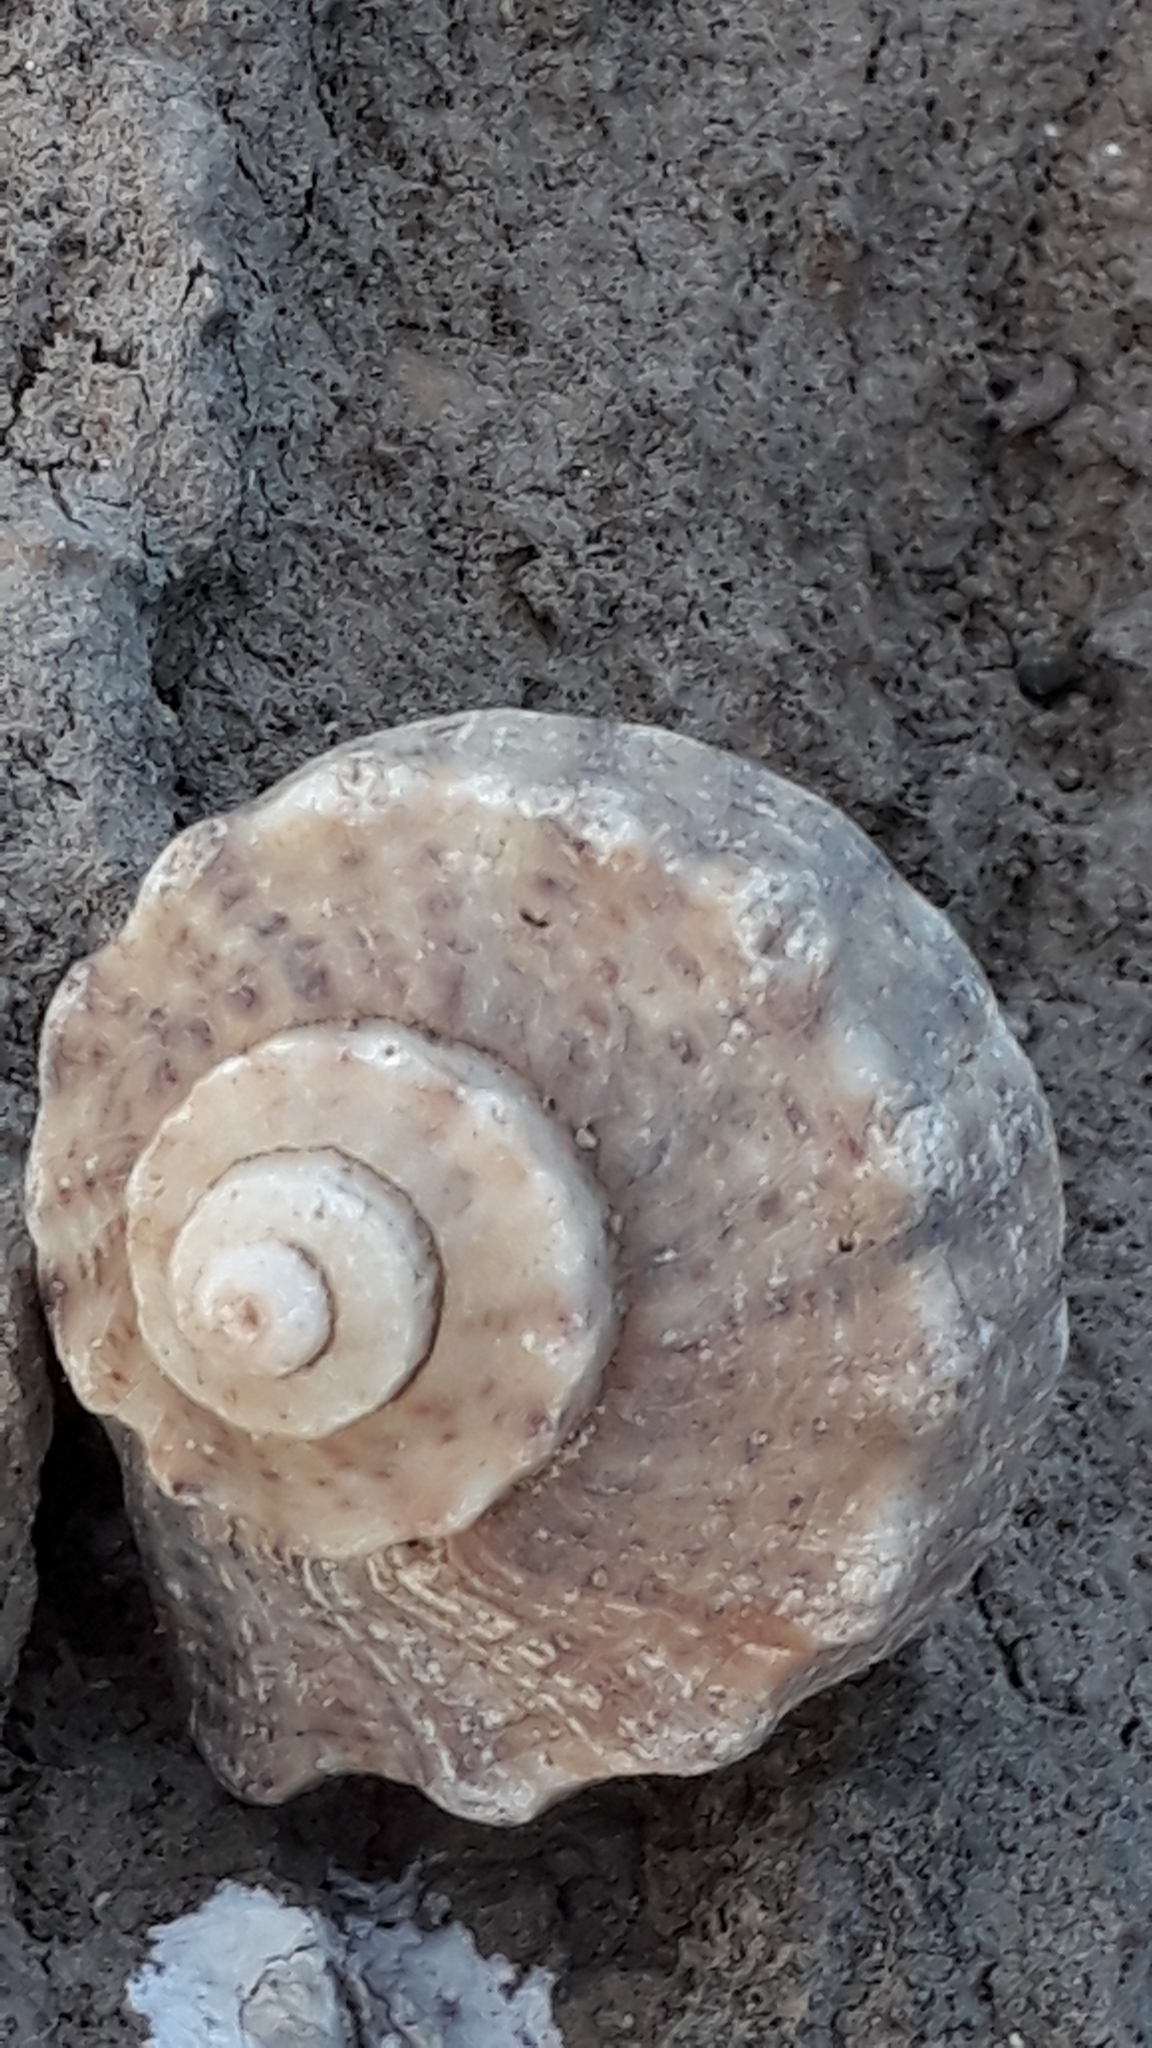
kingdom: Animalia
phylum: Mollusca
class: Gastropoda
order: Neogastropoda
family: Muricidae
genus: Rapana
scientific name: Rapana venosa
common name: Veined rapa whelk
